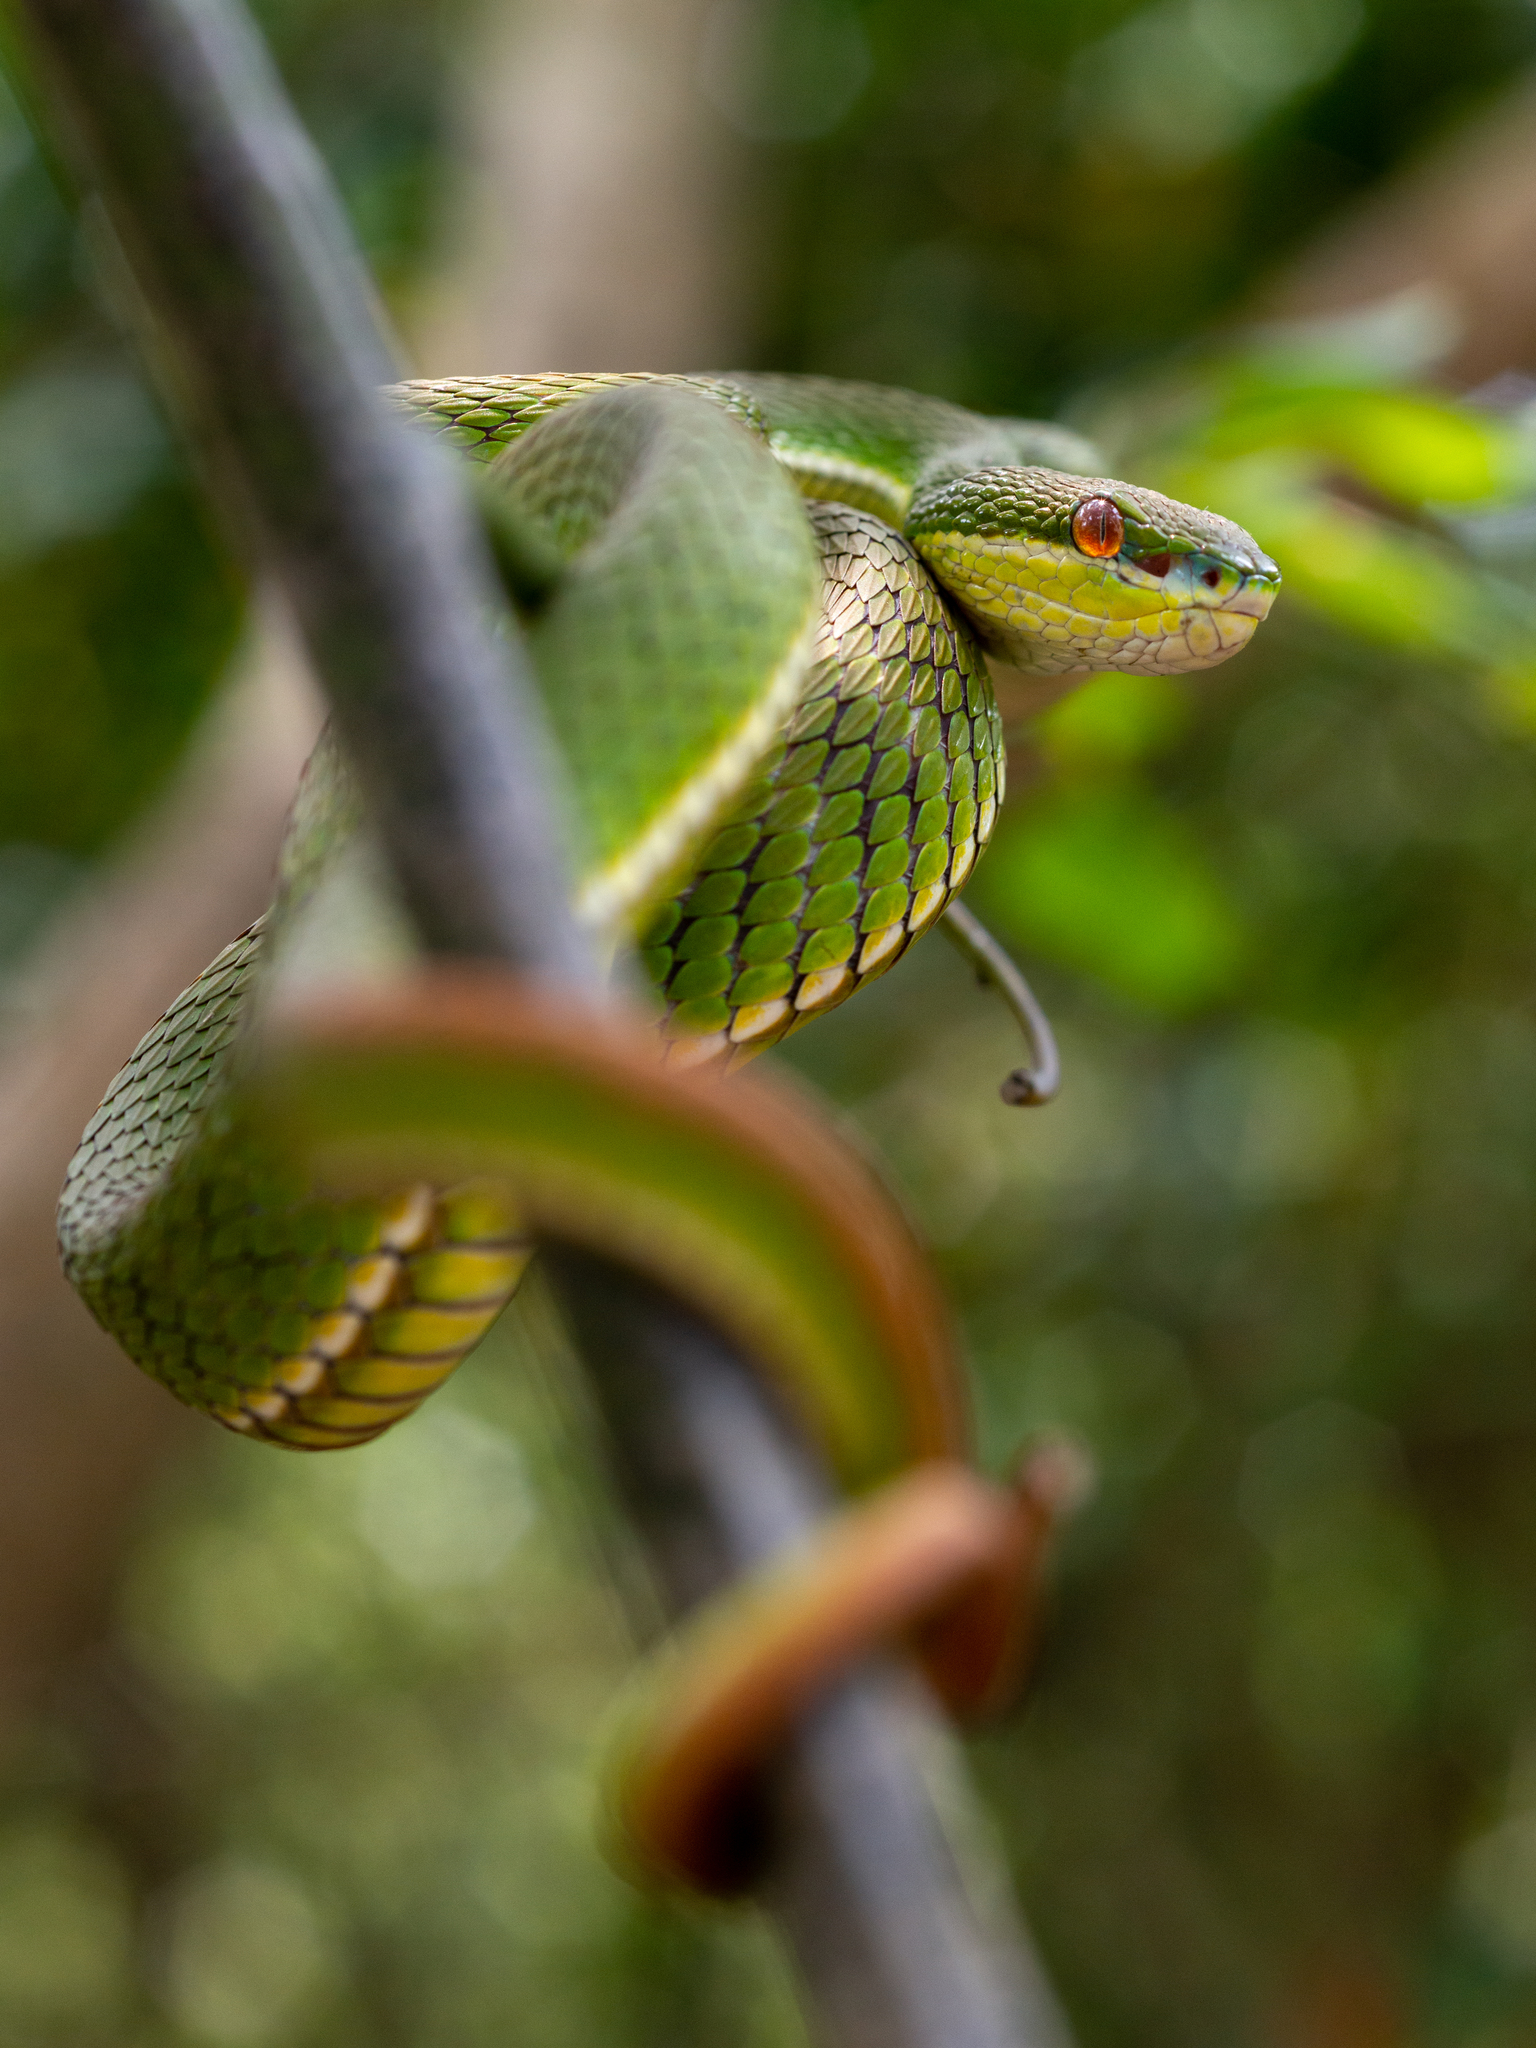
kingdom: Animalia
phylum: Chordata
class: Squamata
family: Viperidae
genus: Trimeresurus
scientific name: Trimeresurus albolabris
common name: White-lipped pitviper
